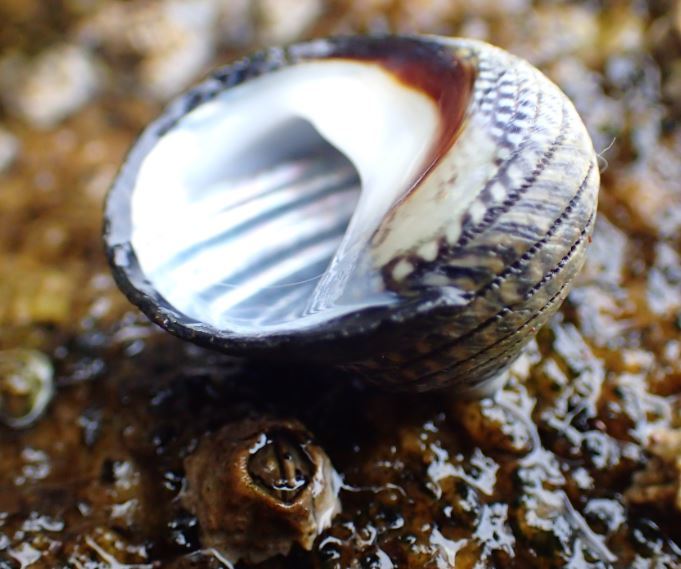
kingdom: Animalia
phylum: Mollusca
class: Gastropoda
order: Trochida
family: Trochidae
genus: Diloma
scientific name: Diloma aethiops
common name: Scorched monodont
